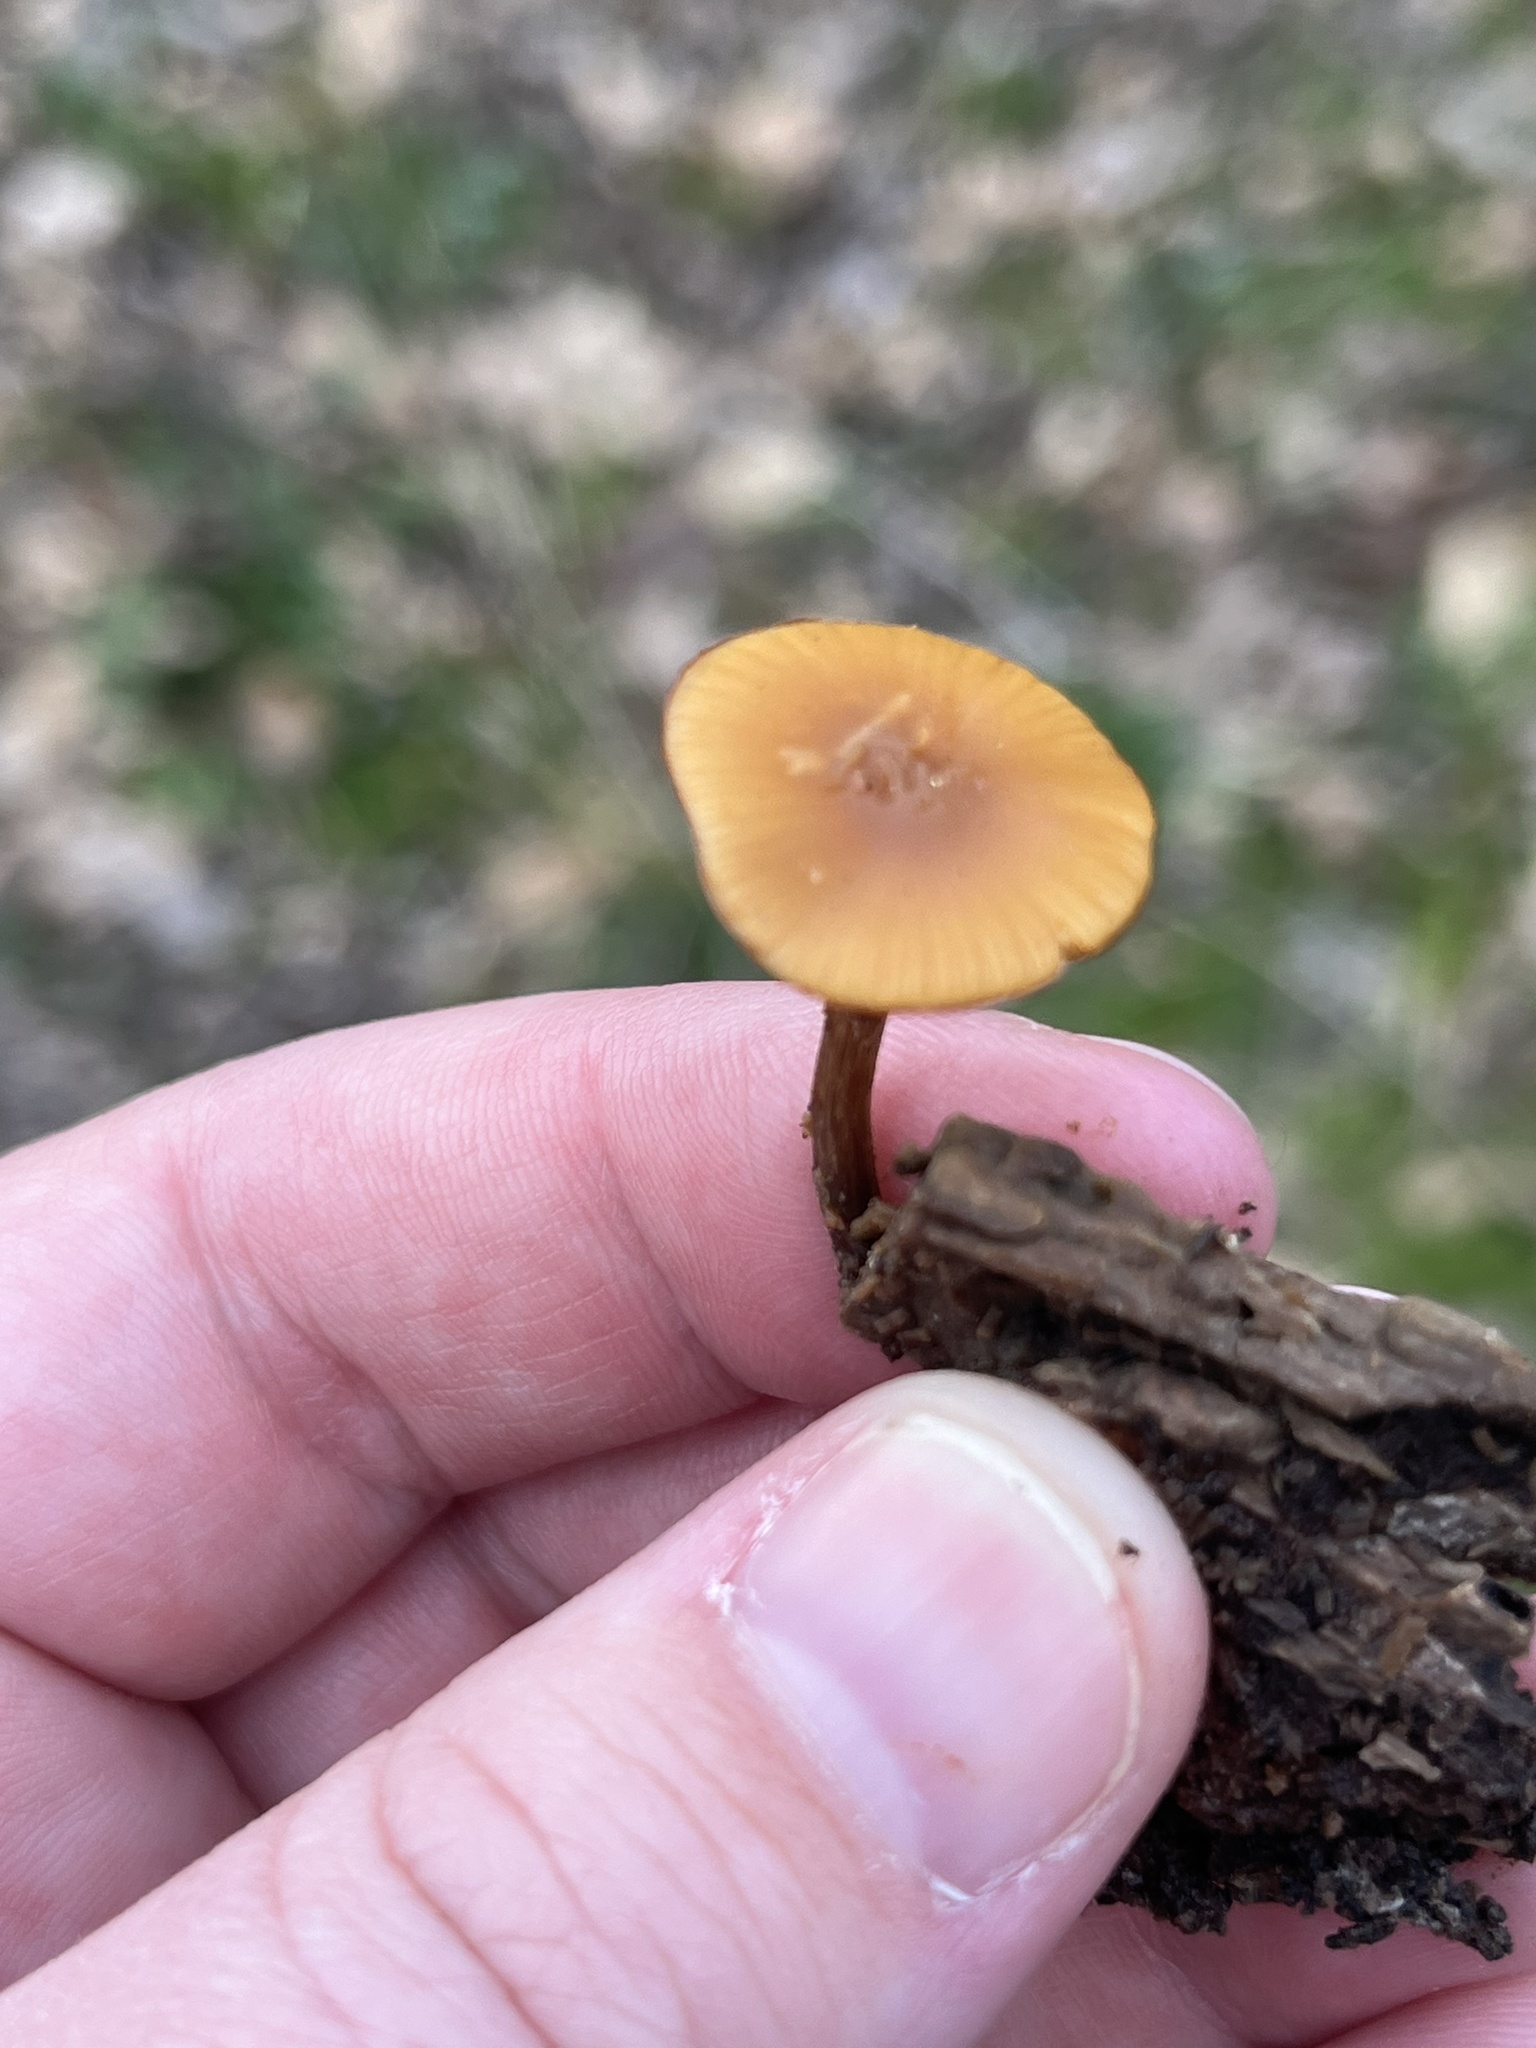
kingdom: Fungi
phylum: Basidiomycota
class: Agaricomycetes
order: Agaricales
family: Hymenogastraceae
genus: Galerina
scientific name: Galerina marginata
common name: Funeral bell
